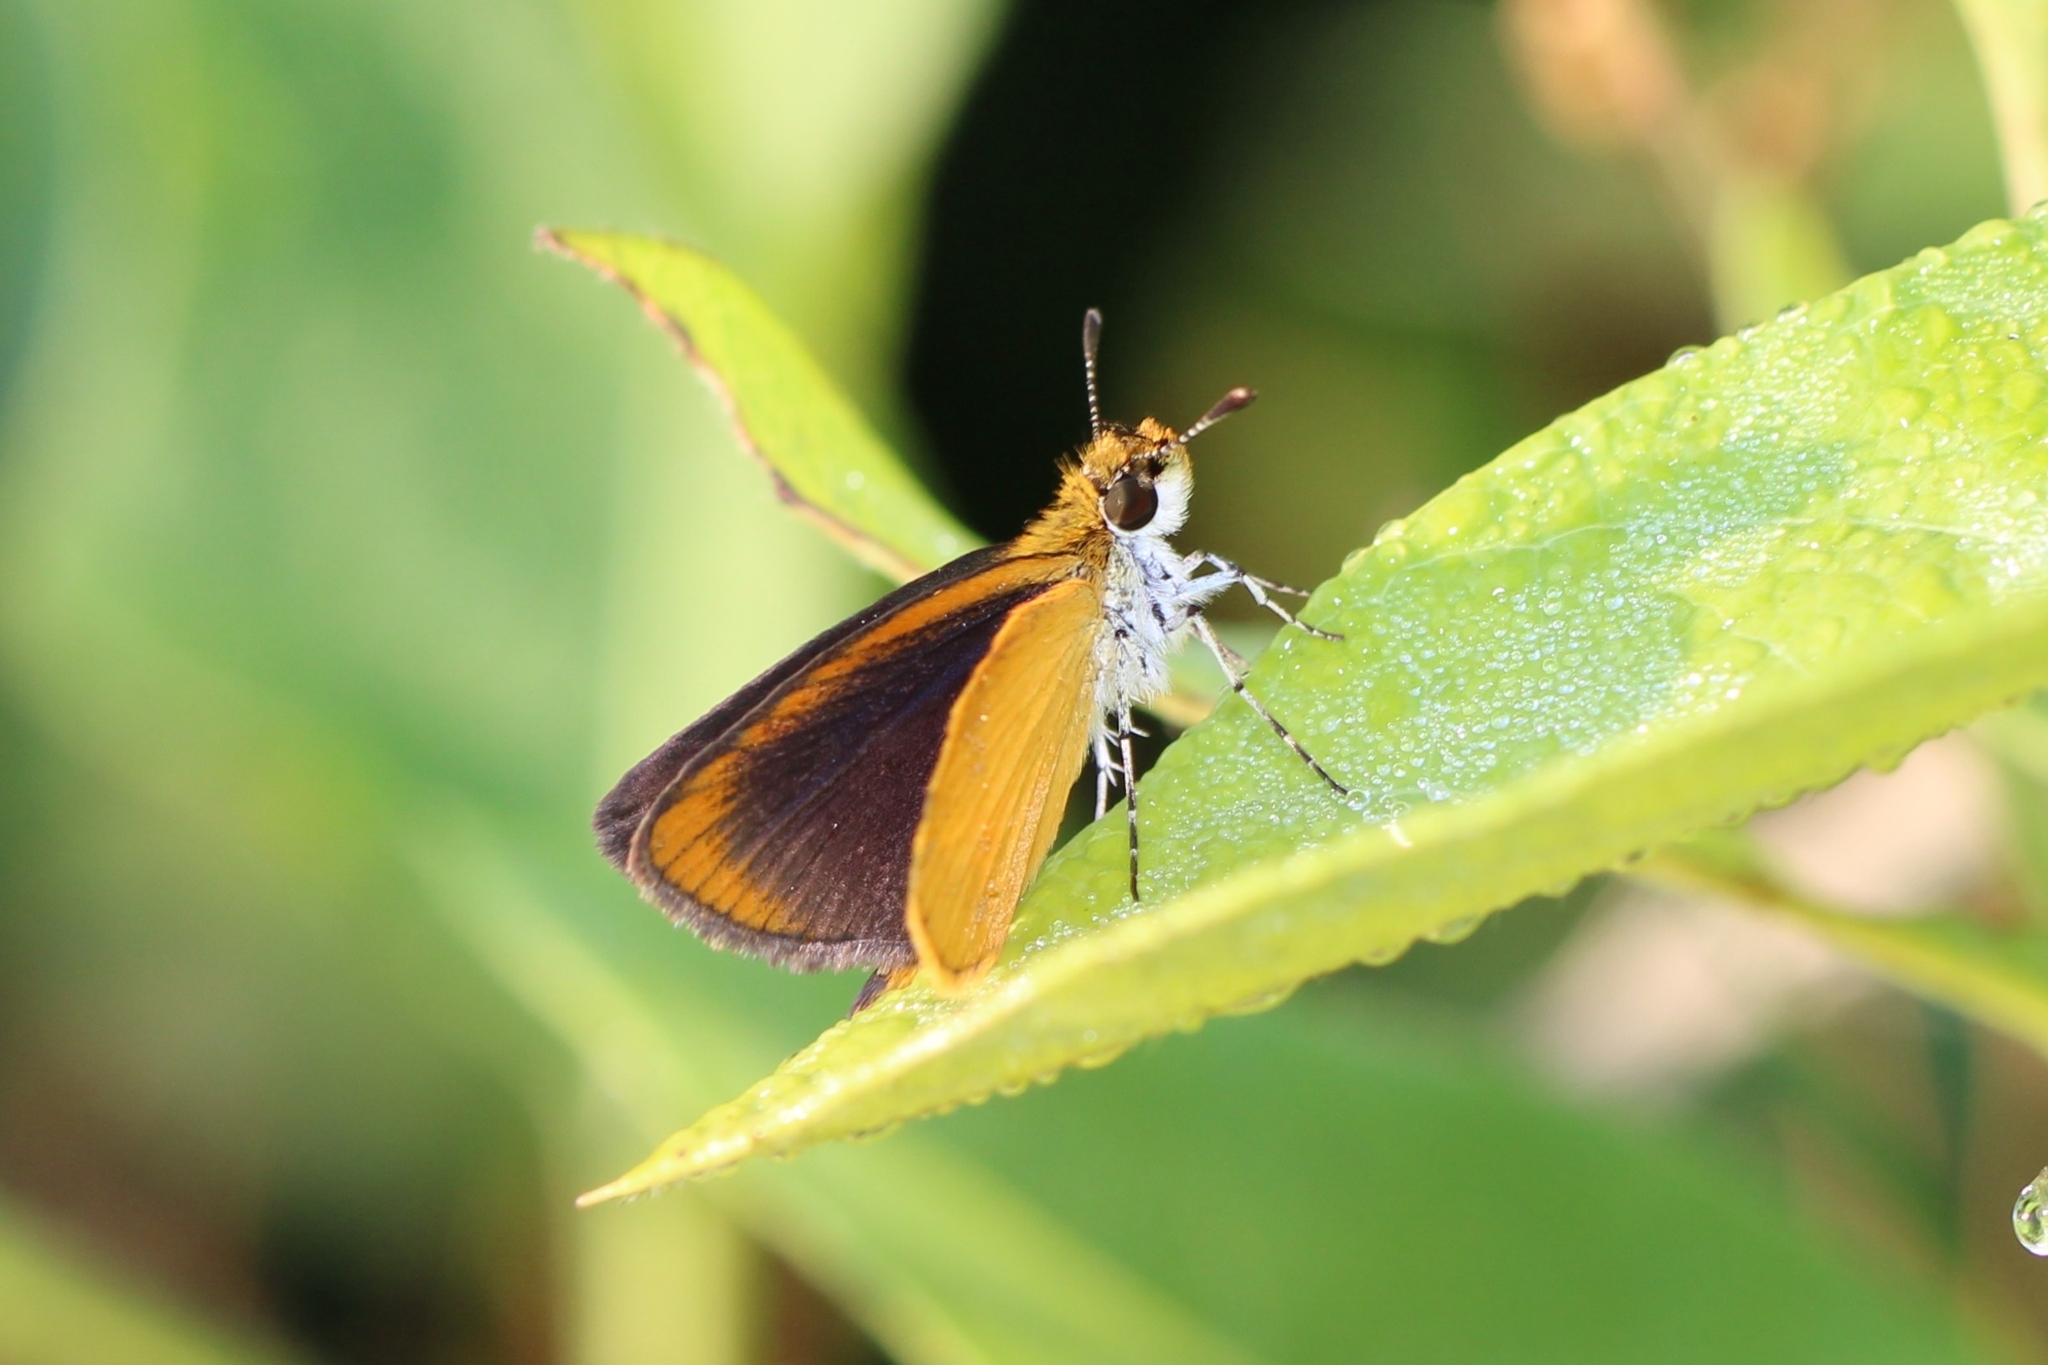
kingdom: Animalia
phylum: Arthropoda
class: Insecta
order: Lepidoptera
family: Hesperiidae
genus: Ancyloxypha
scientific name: Ancyloxypha numitor
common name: Least skipper
